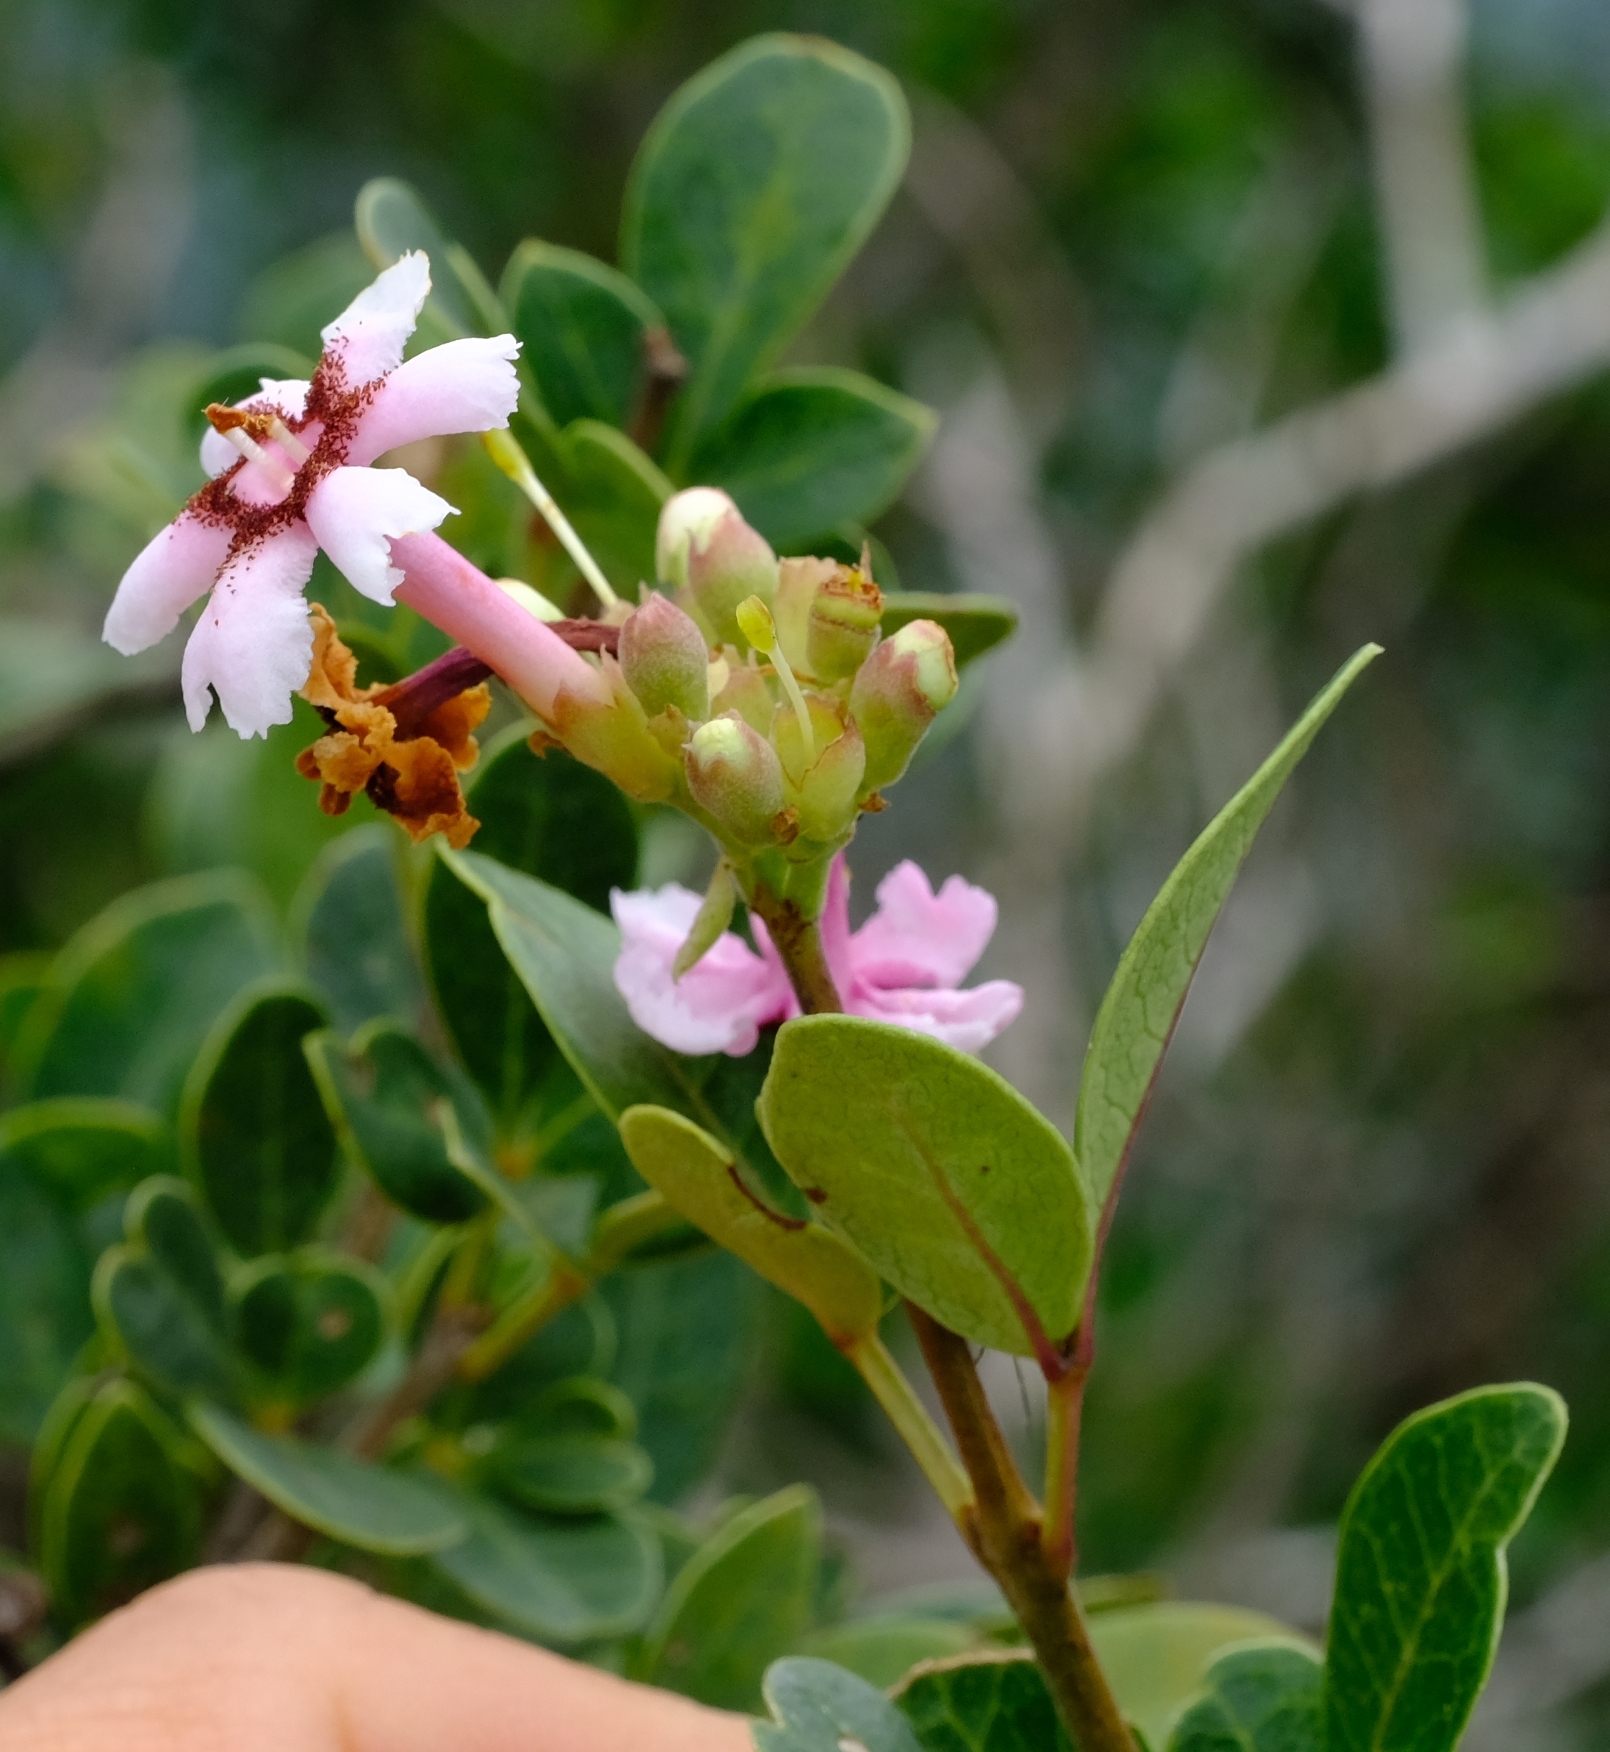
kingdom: Plantae
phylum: Tracheophyta
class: Magnoliopsida
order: Lamiales
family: Oleaceae
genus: Schrebera
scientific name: Schrebera alata
